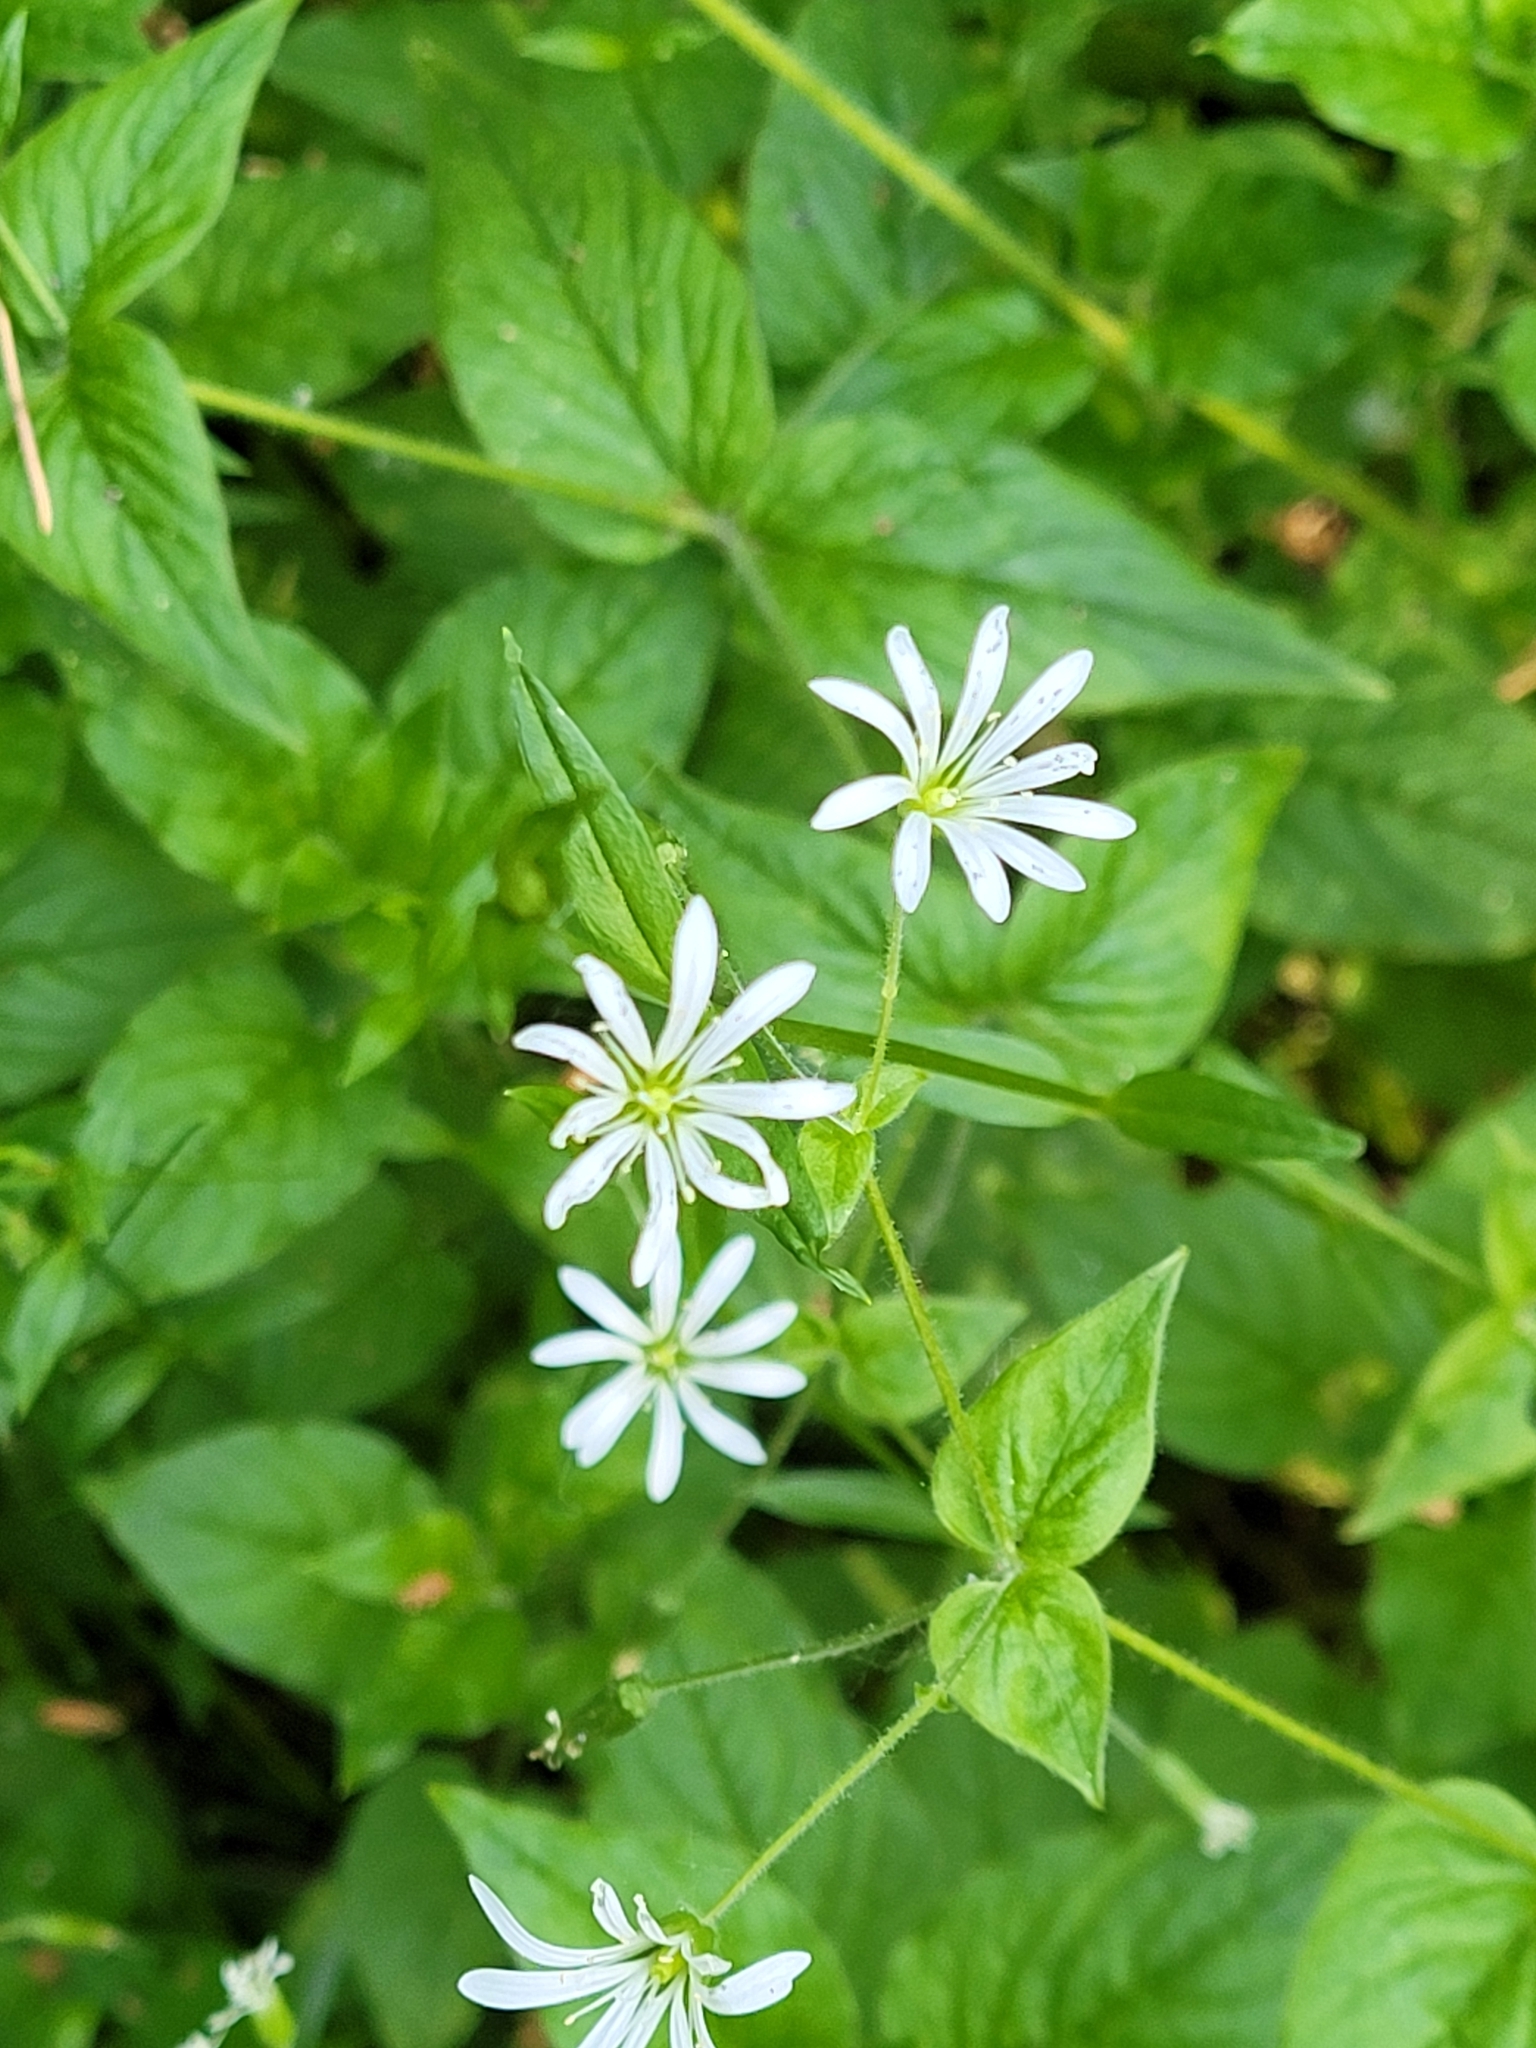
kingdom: Plantae
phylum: Tracheophyta
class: Magnoliopsida
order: Caryophyllales
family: Caryophyllaceae
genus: Stellaria
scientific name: Stellaria nemorum
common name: Wood stitchwort
